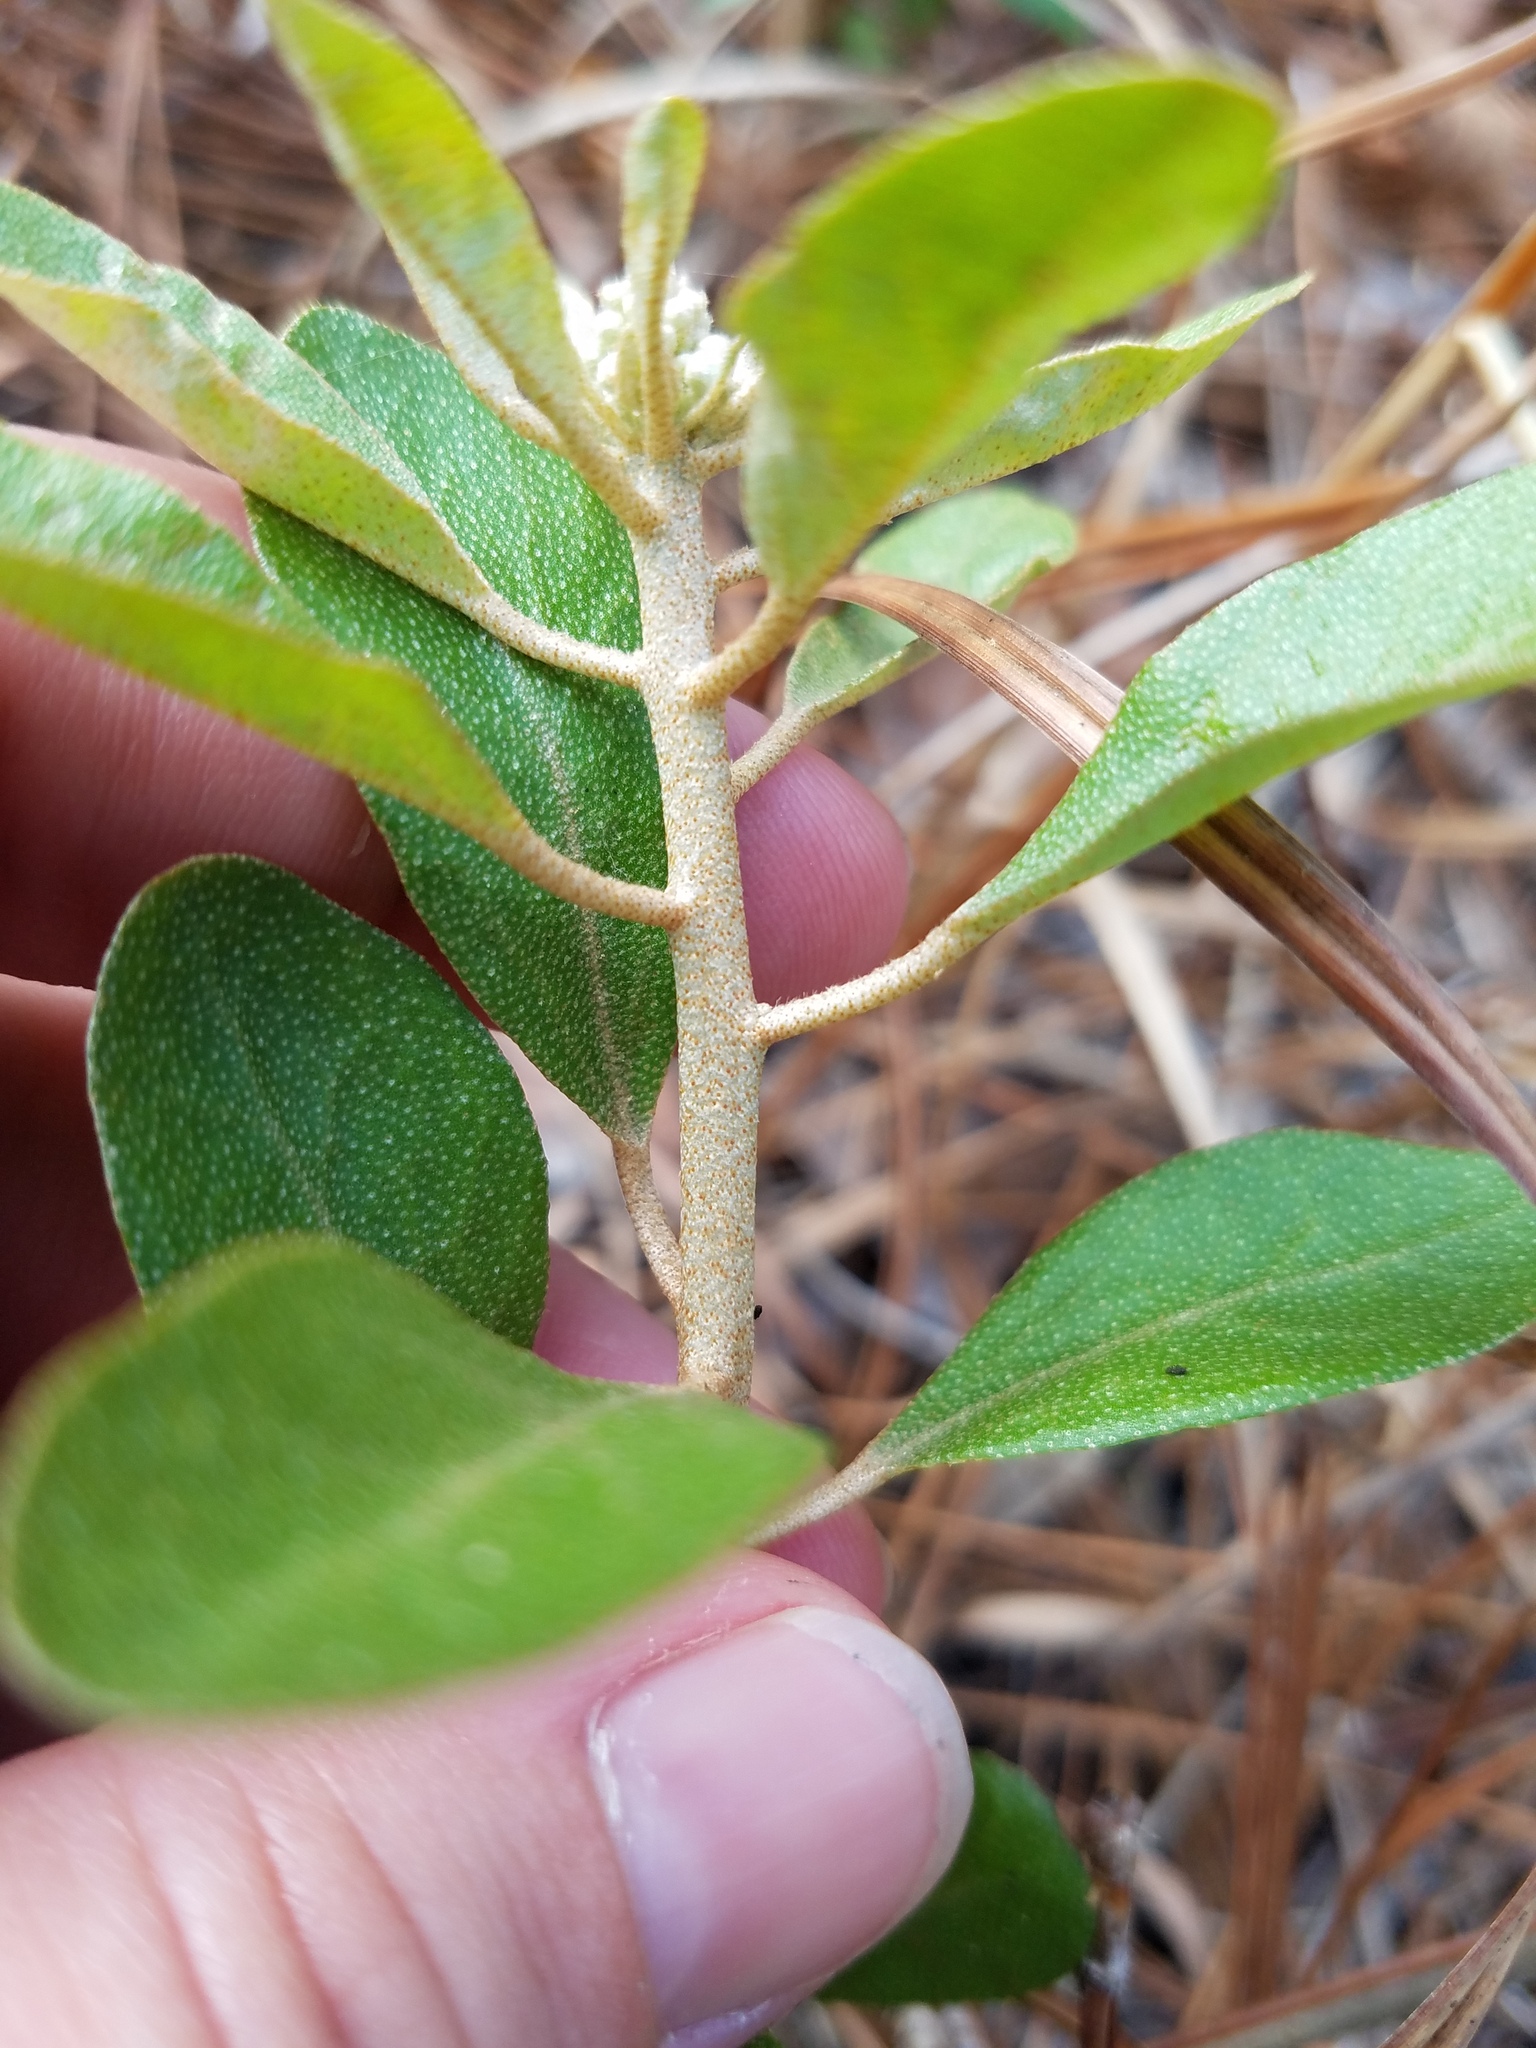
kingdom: Plantae
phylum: Tracheophyta
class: Magnoliopsida
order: Malpighiales
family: Euphorbiaceae
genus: Croton
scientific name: Croton argyranthemus
